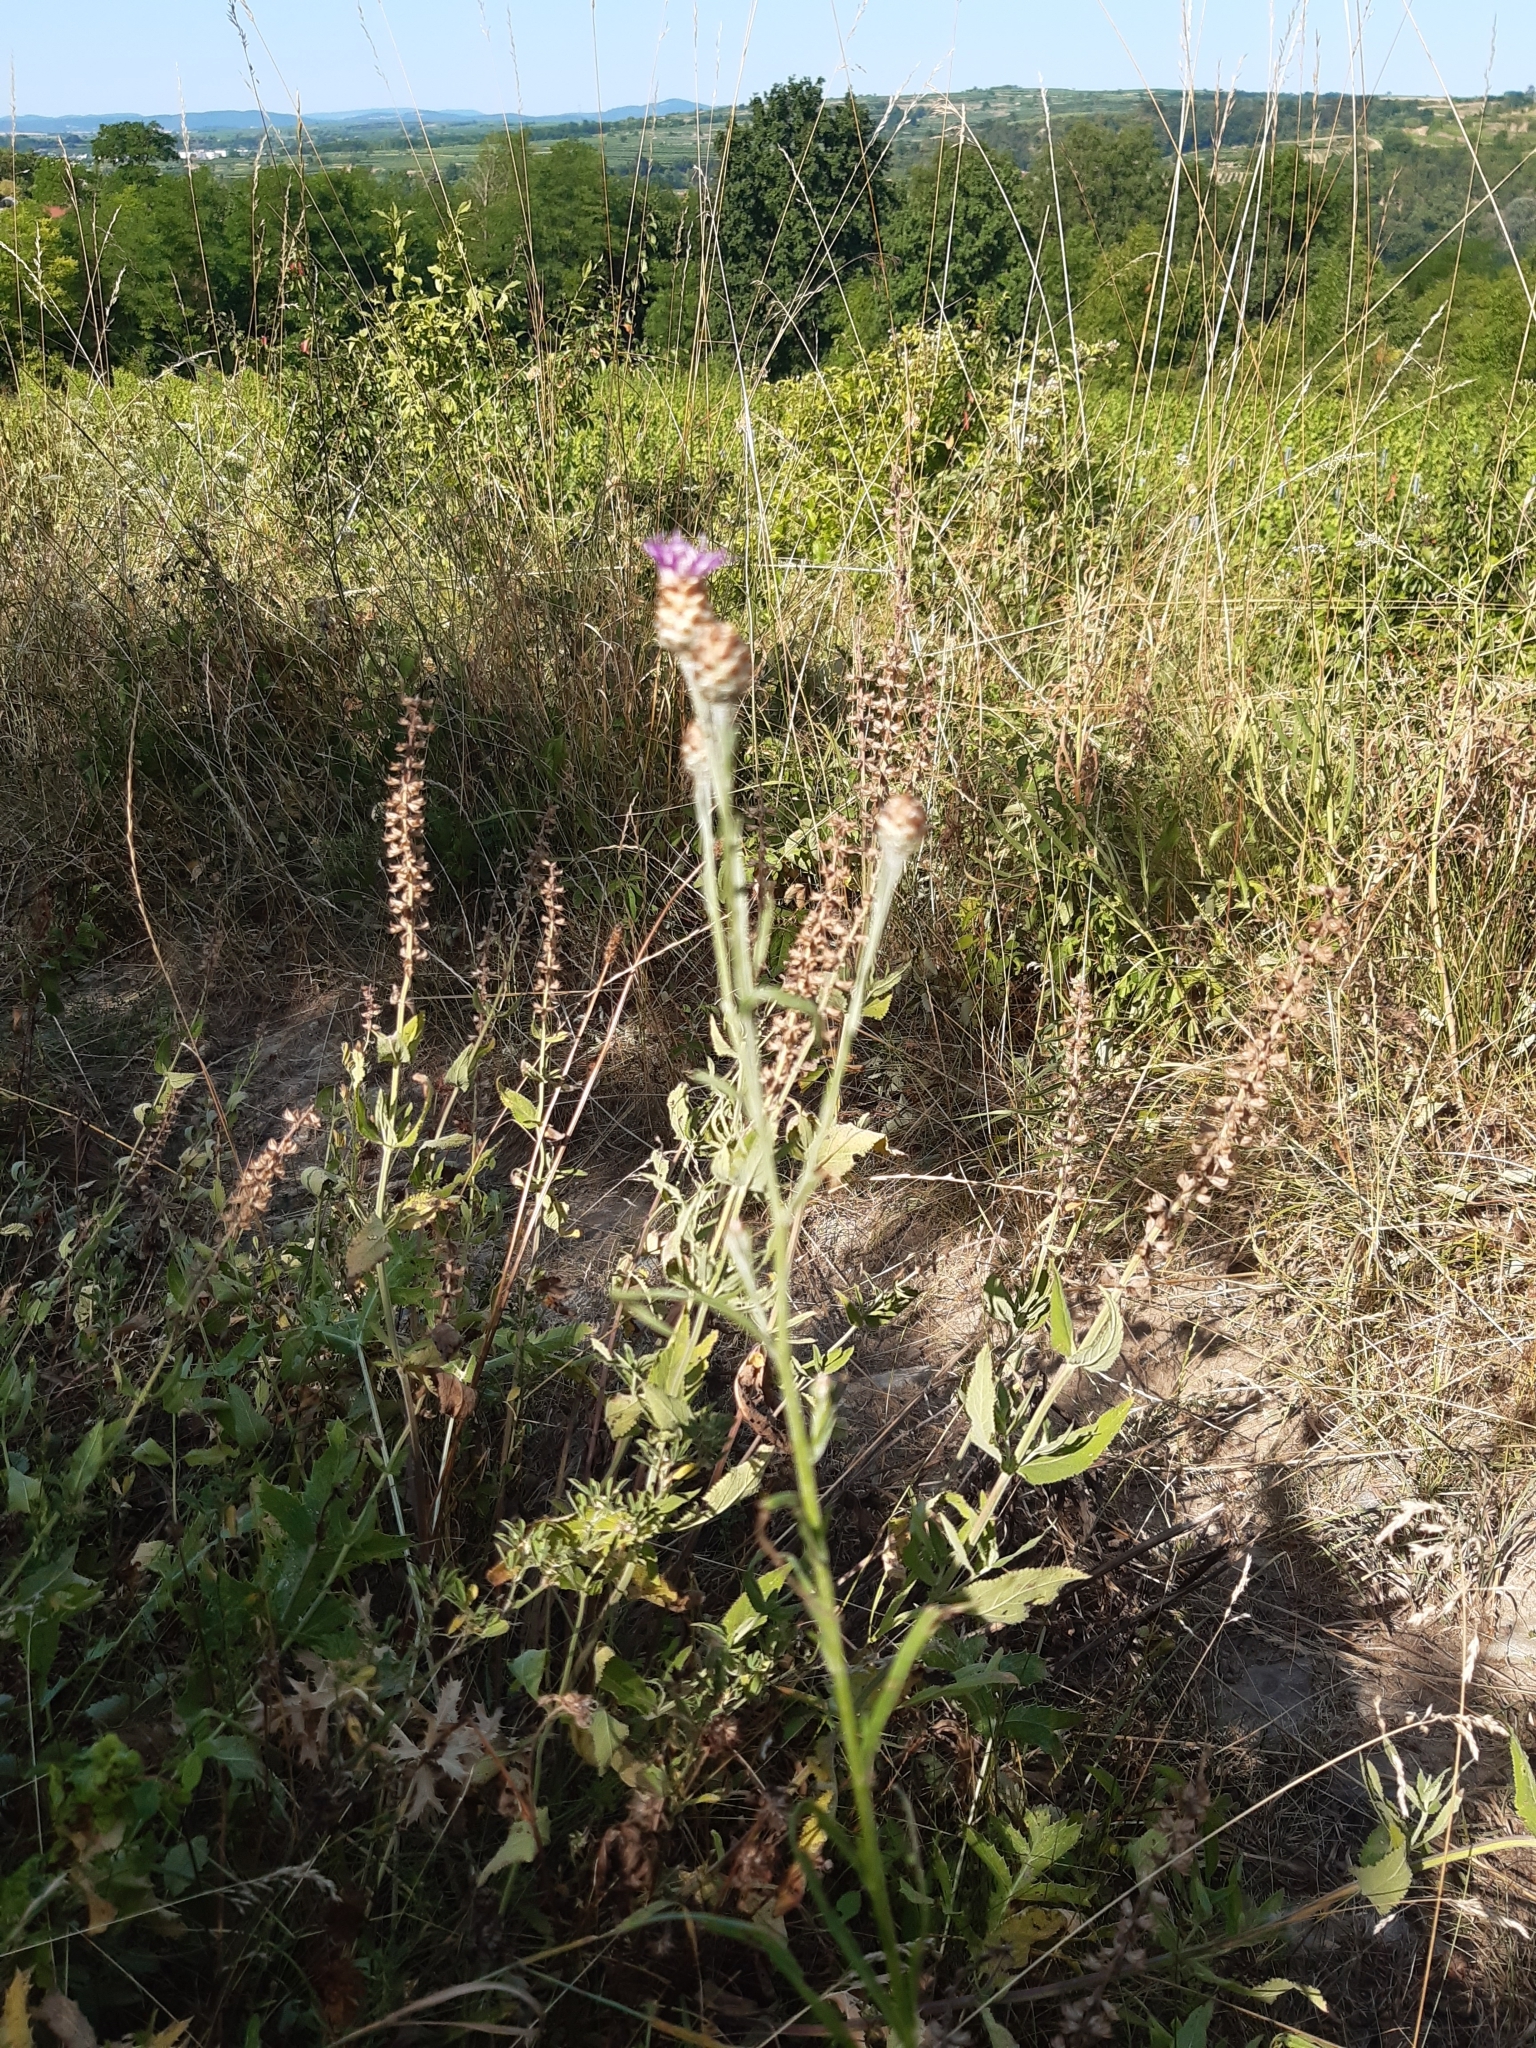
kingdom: Plantae
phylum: Tracheophyta
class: Magnoliopsida
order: Asterales
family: Asteraceae
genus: Centaurea
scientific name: Centaurea jacea
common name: Brown knapweed
